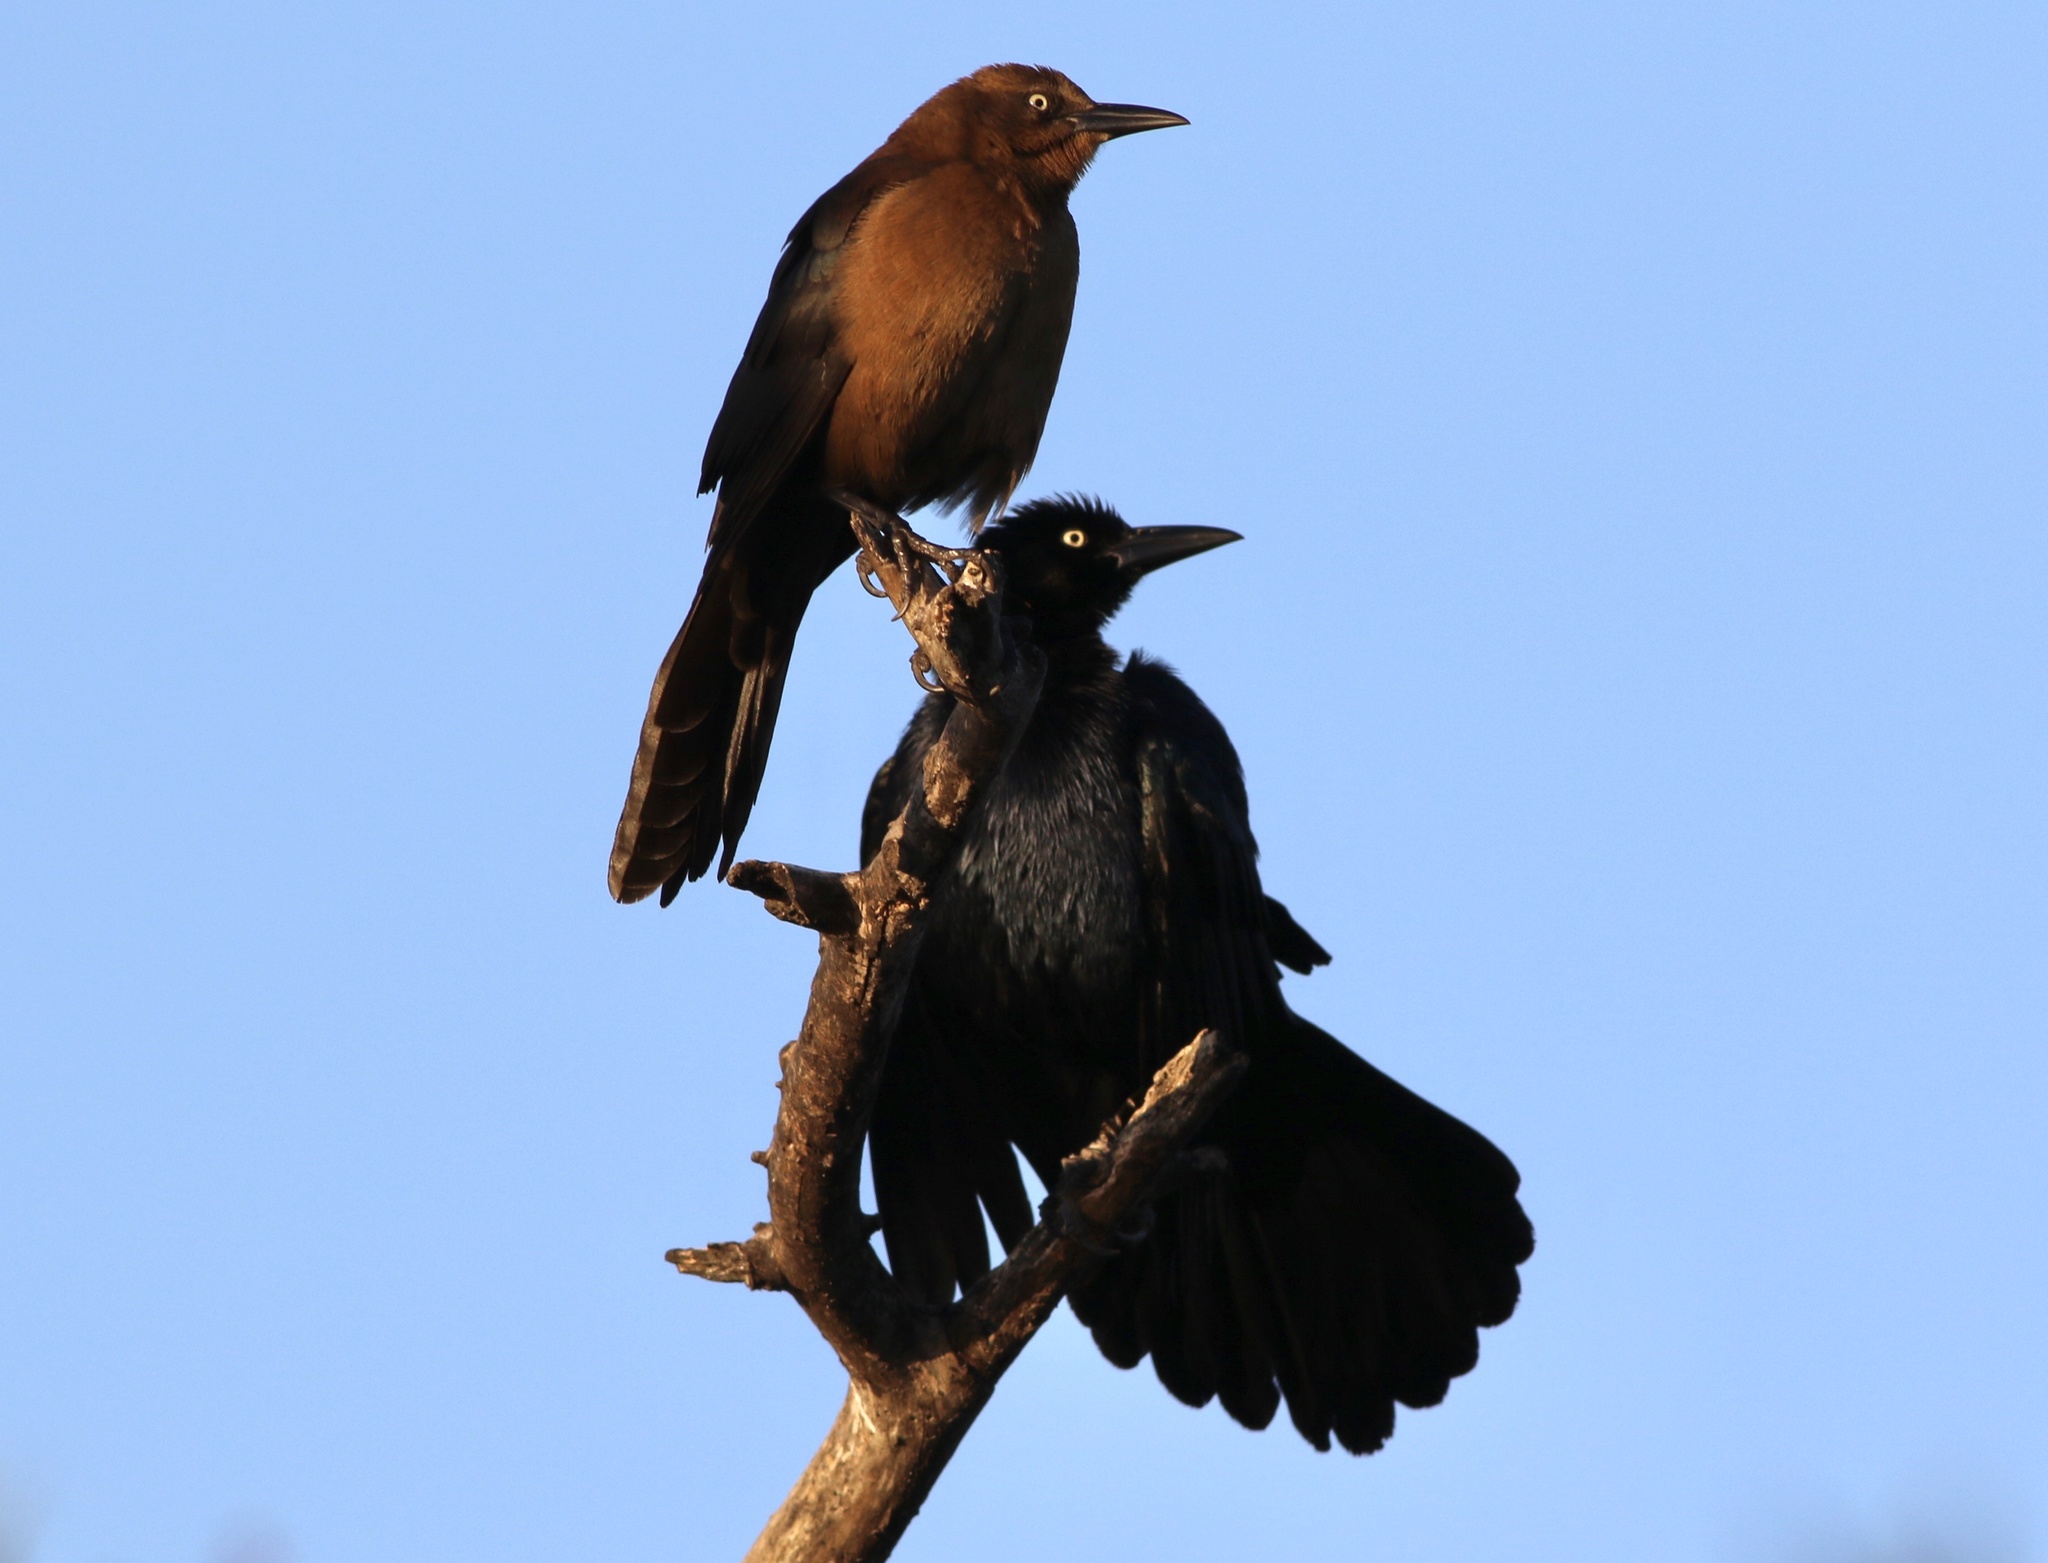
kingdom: Animalia
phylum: Chordata
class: Aves
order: Passeriformes
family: Icteridae
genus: Quiscalus
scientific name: Quiscalus mexicanus
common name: Great-tailed grackle
